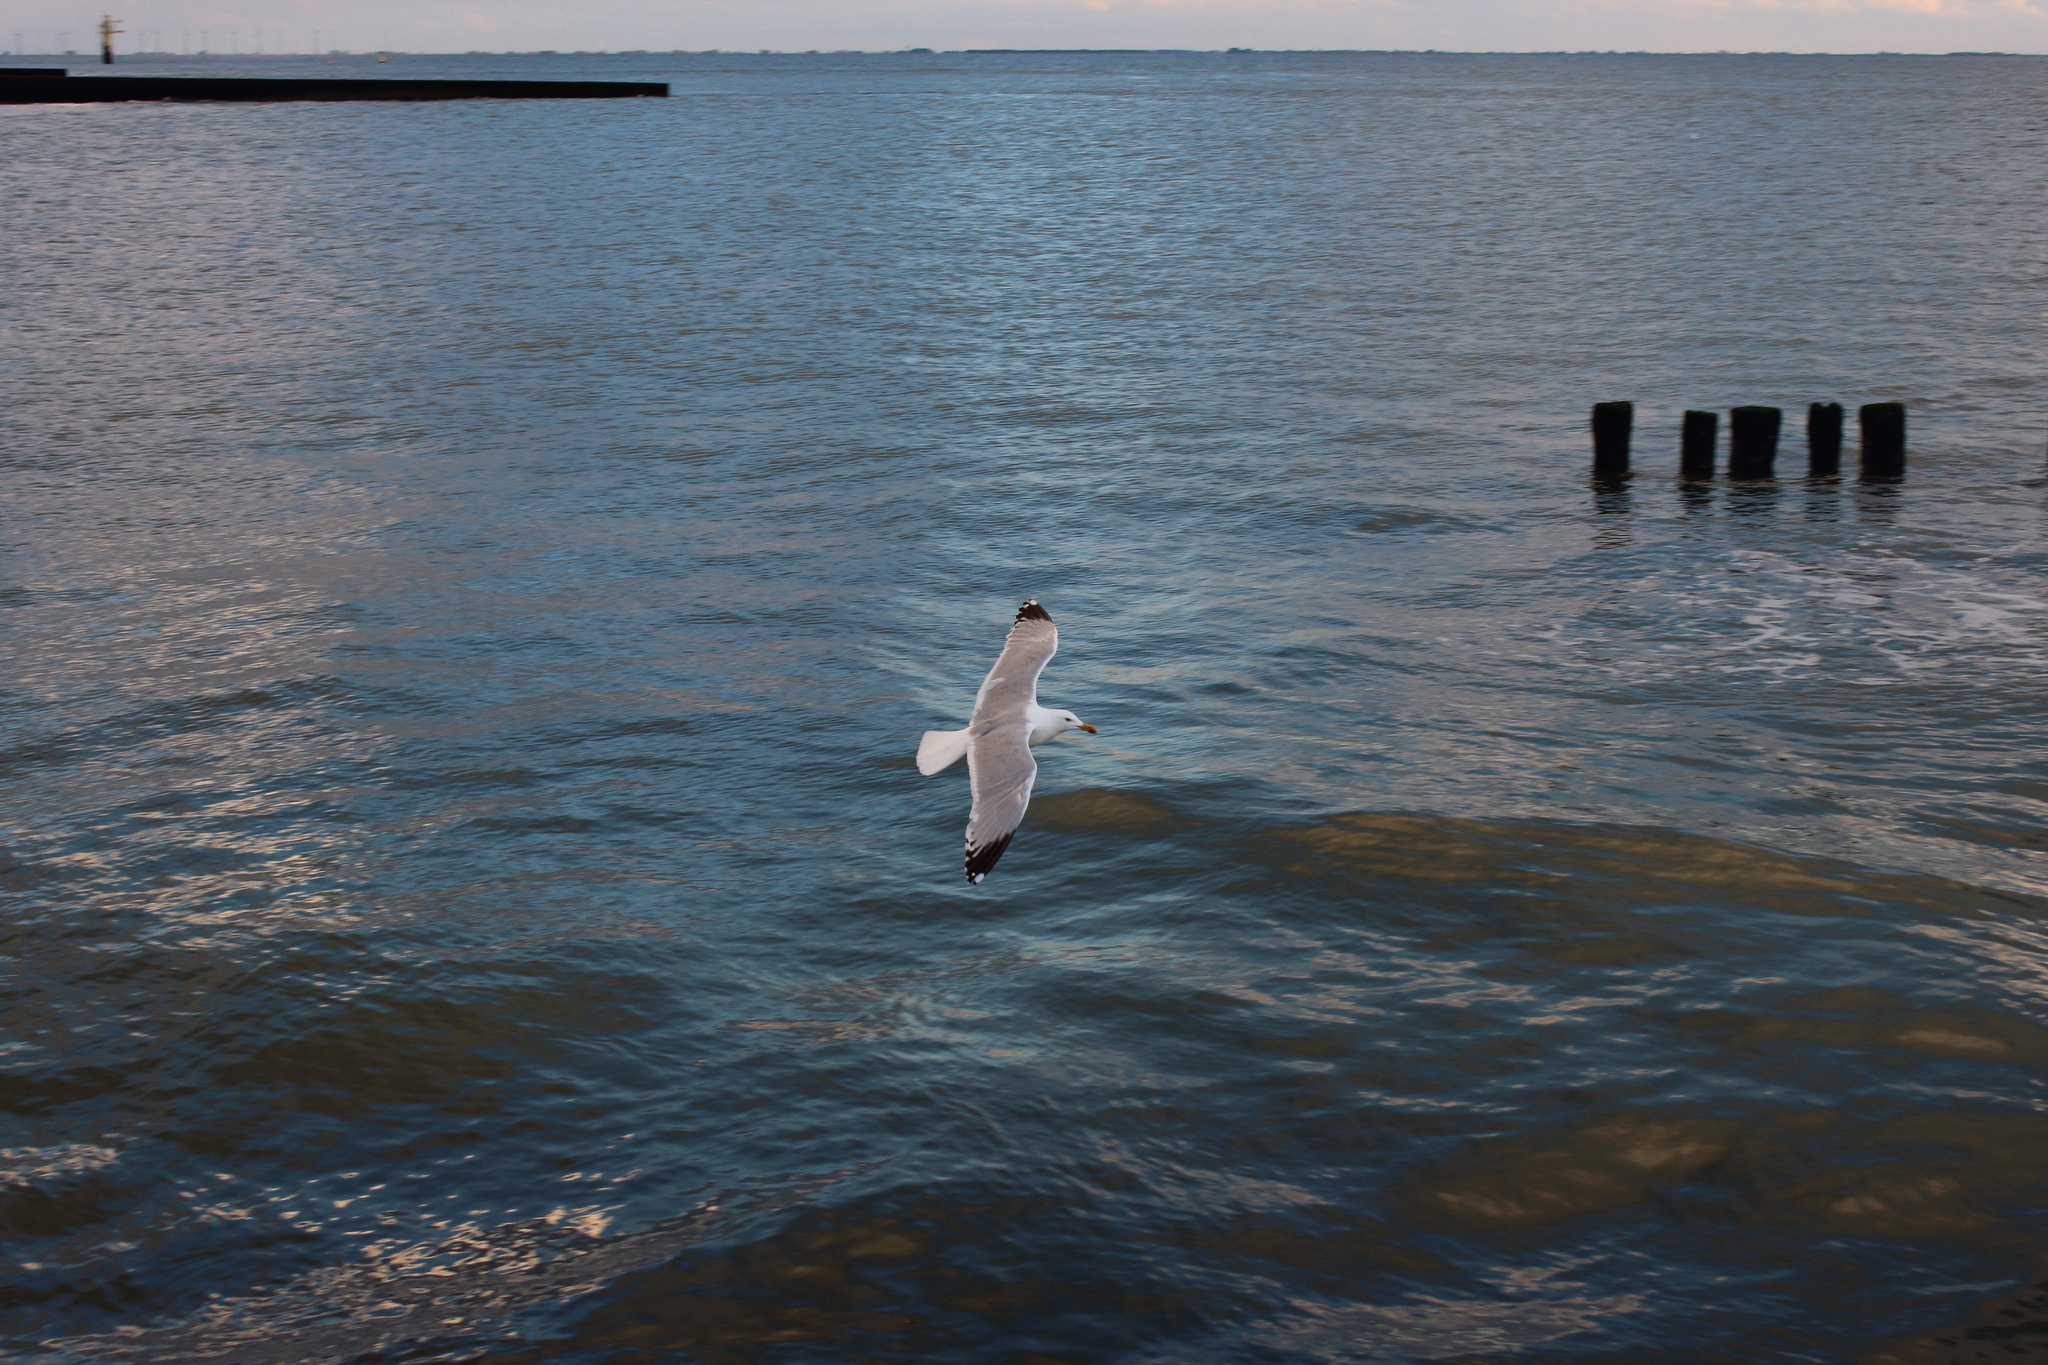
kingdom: Animalia
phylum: Chordata
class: Aves
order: Charadriiformes
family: Laridae
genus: Larus
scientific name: Larus argentatus
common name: Herring gull
